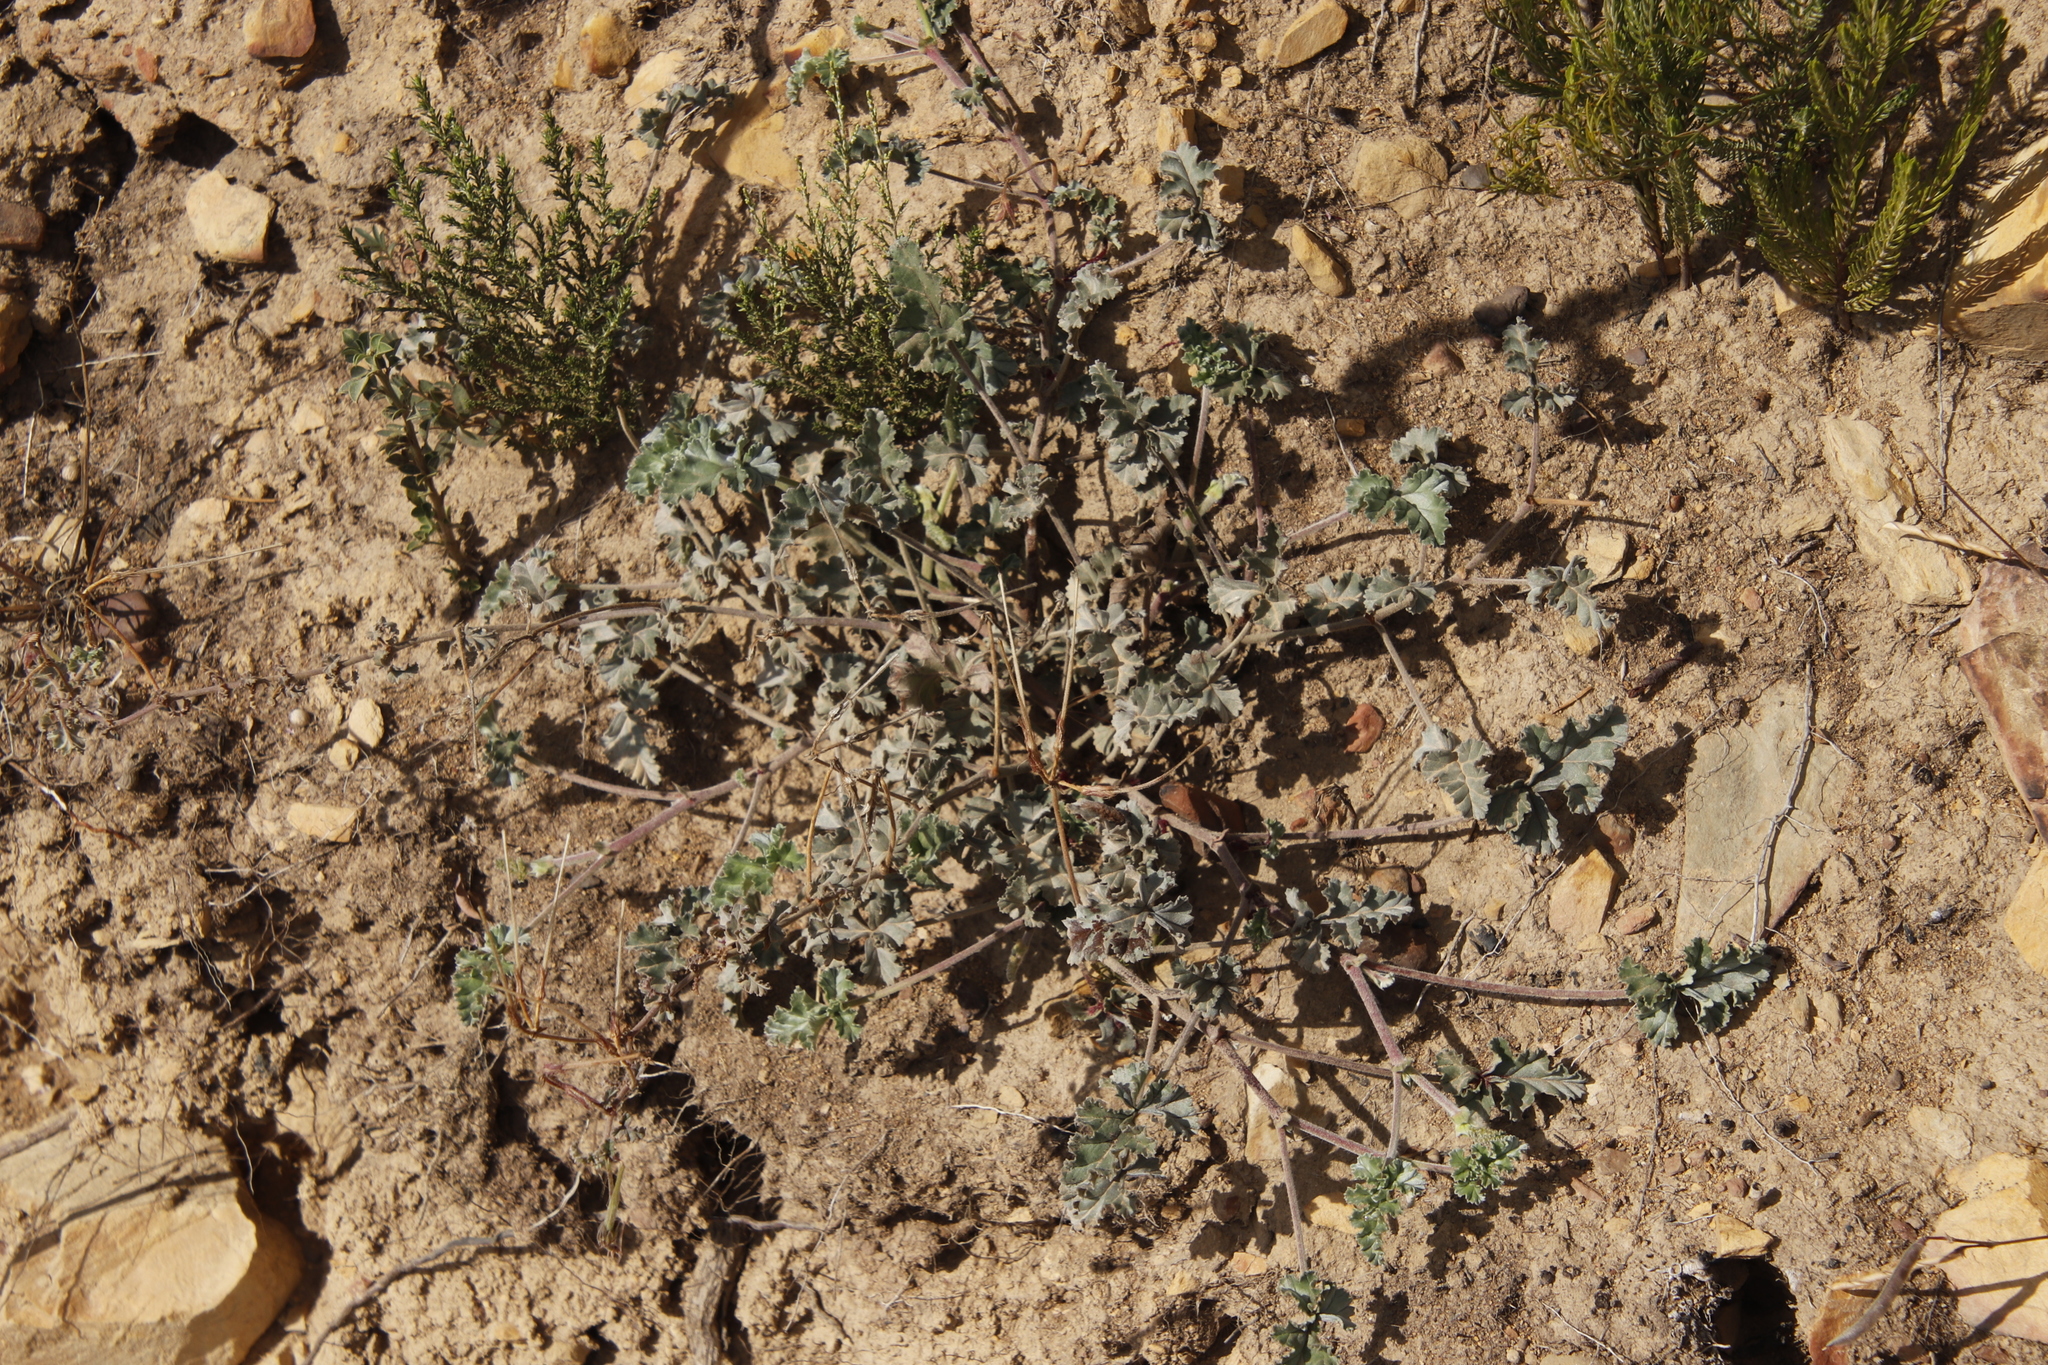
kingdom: Plantae
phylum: Tracheophyta
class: Magnoliopsida
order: Geraniales
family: Geraniaceae
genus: Pelargonium
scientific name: Pelargonium candicans
